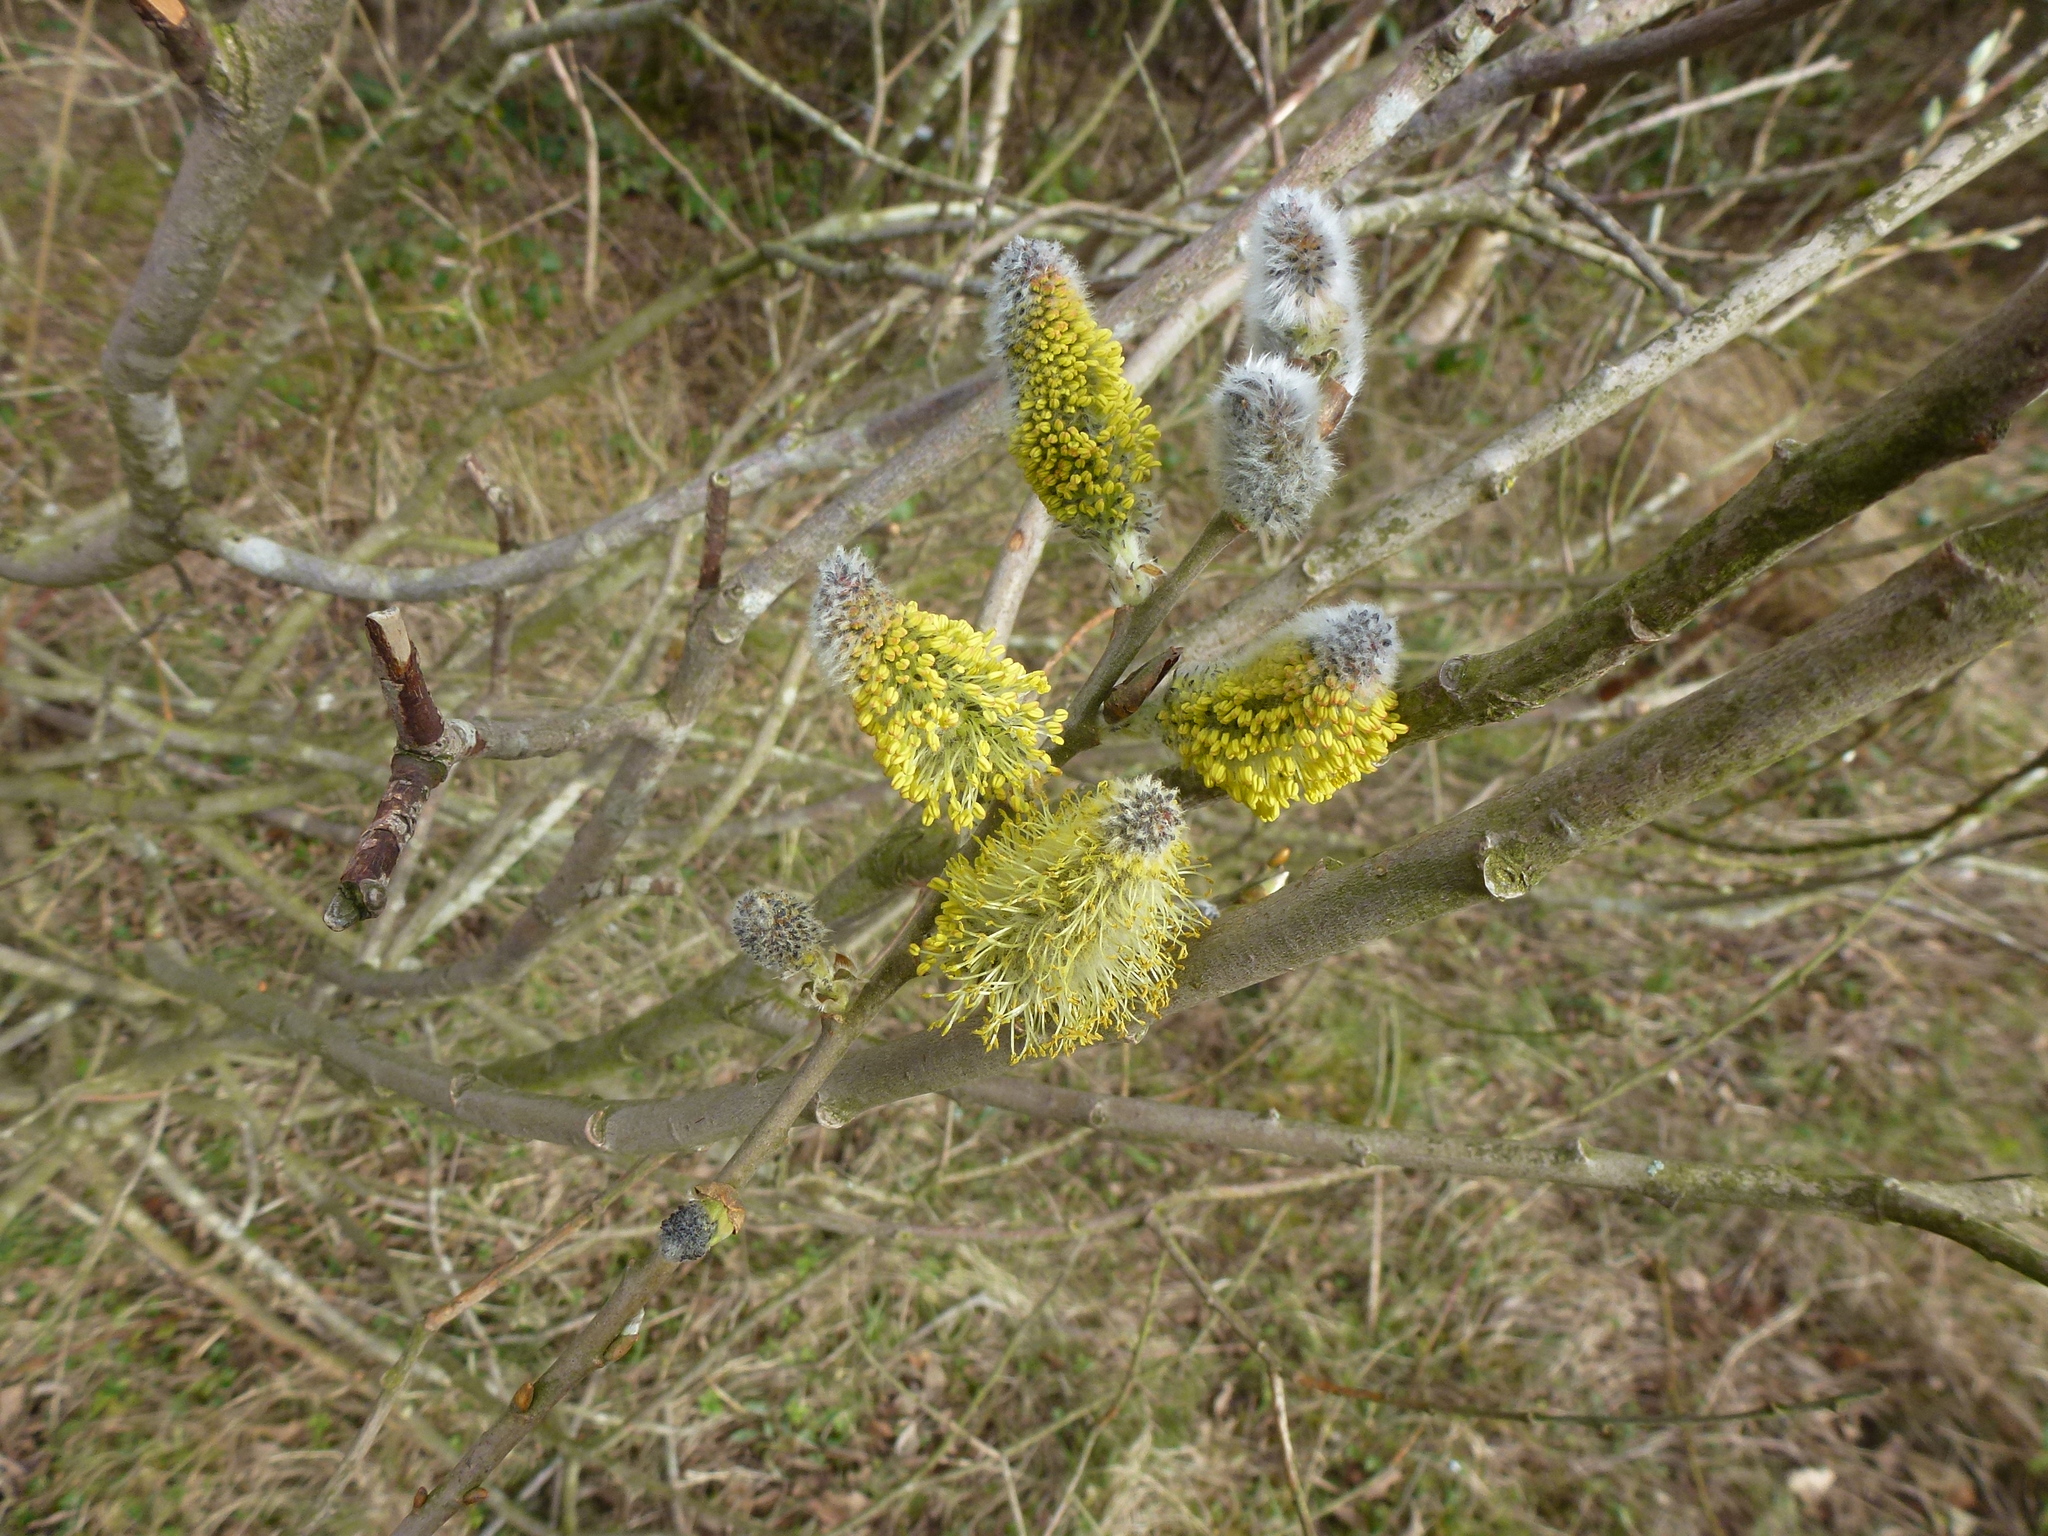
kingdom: Plantae
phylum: Tracheophyta
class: Magnoliopsida
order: Malpighiales
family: Salicaceae
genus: Salix
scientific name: Salix caprea
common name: Goat willow
